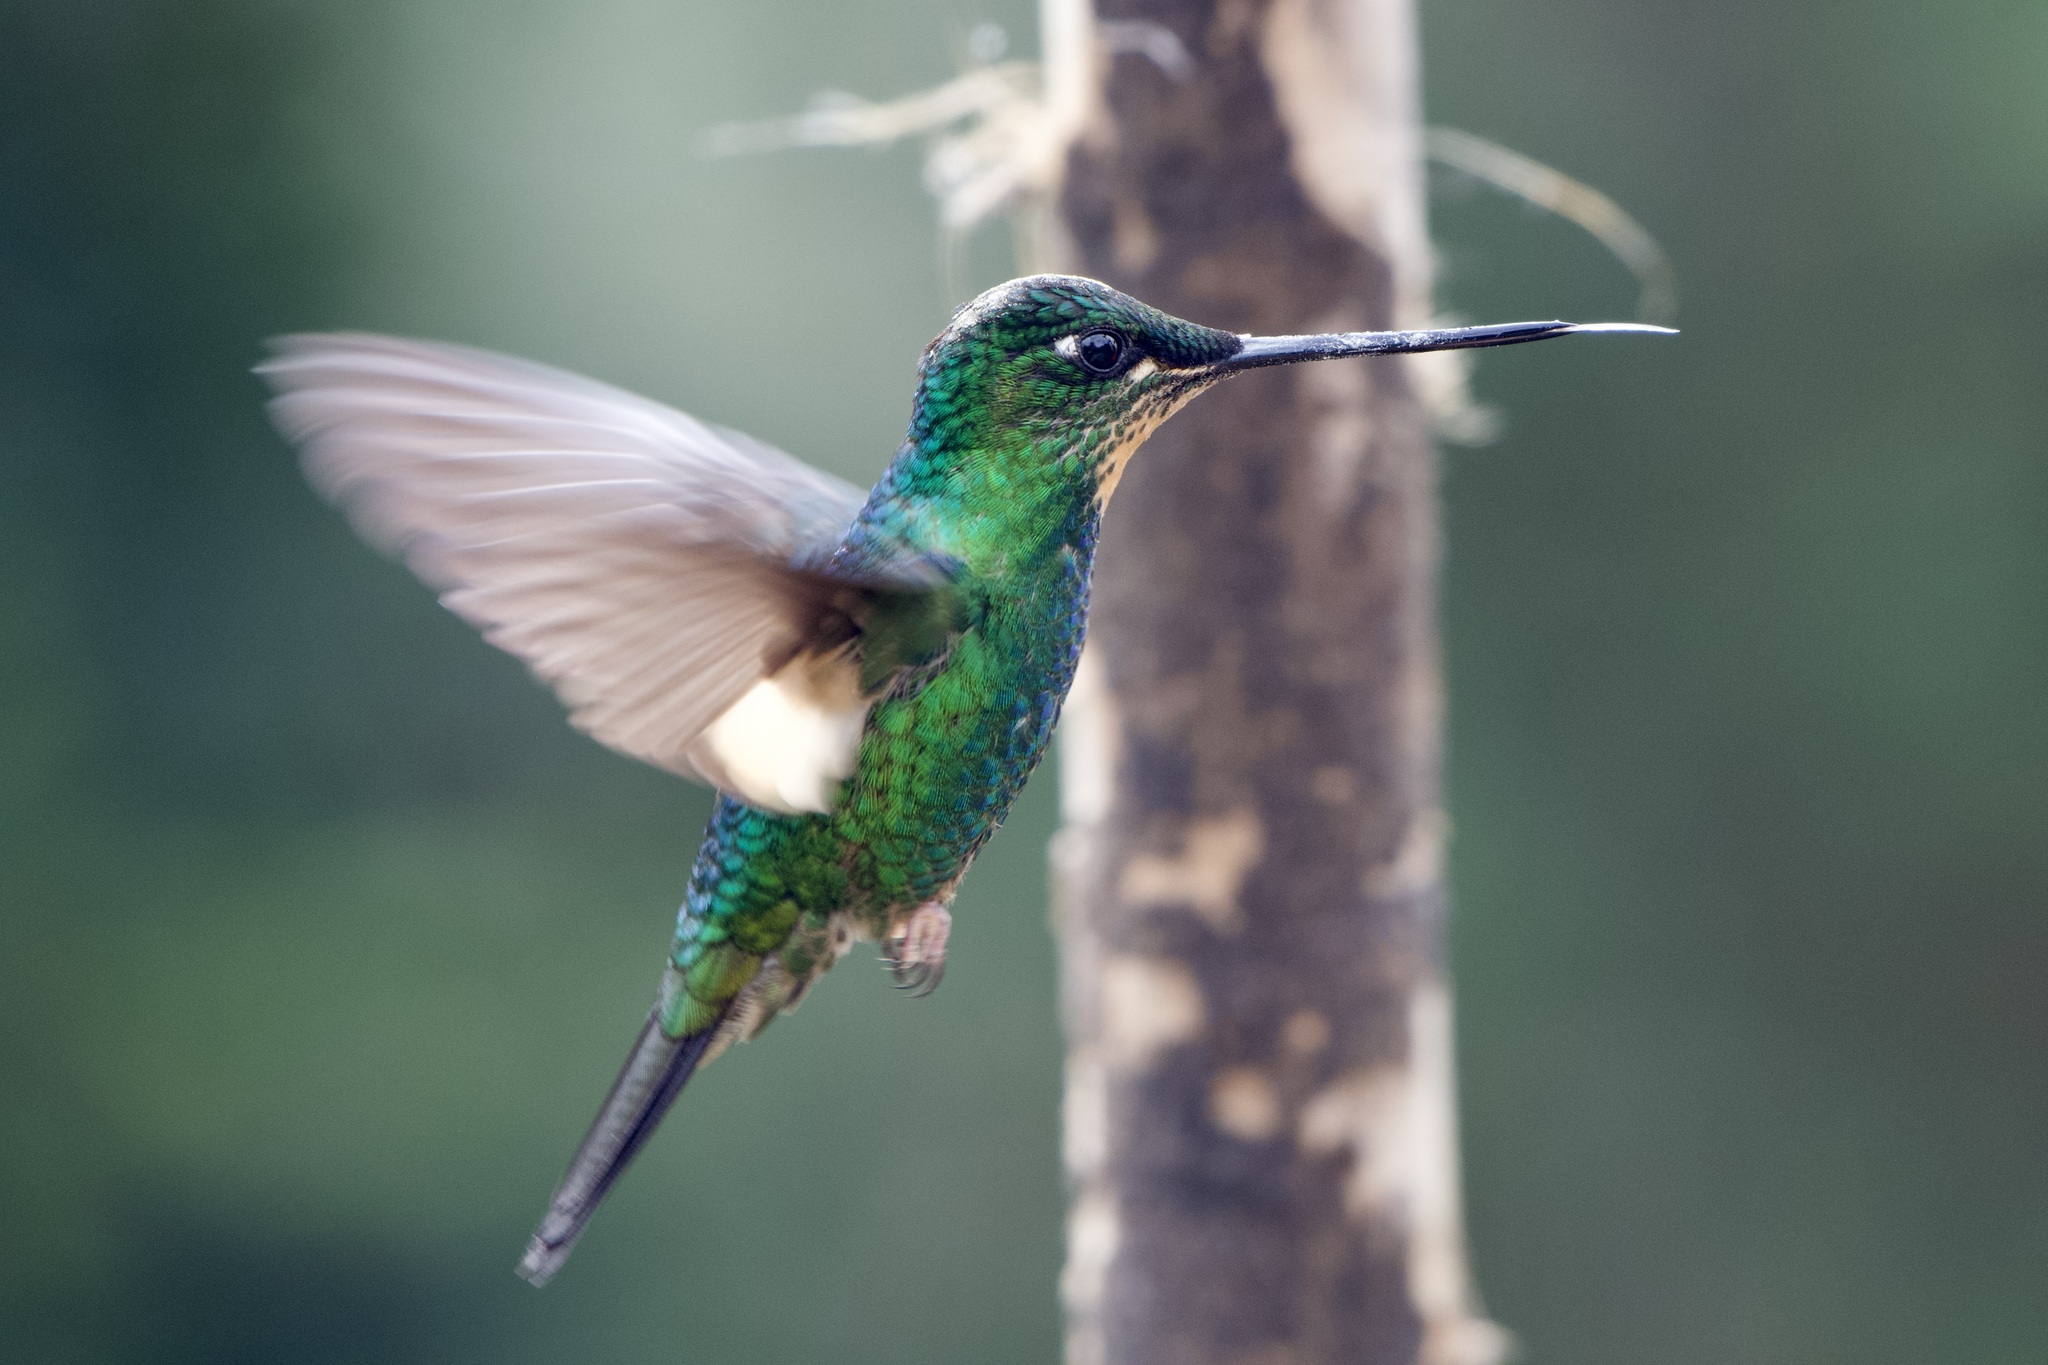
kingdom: Animalia
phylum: Chordata
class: Aves
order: Apodiformes
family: Trochilidae
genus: Coeligena
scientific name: Coeligena lutetiae
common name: Buff-winged starfrontlet
